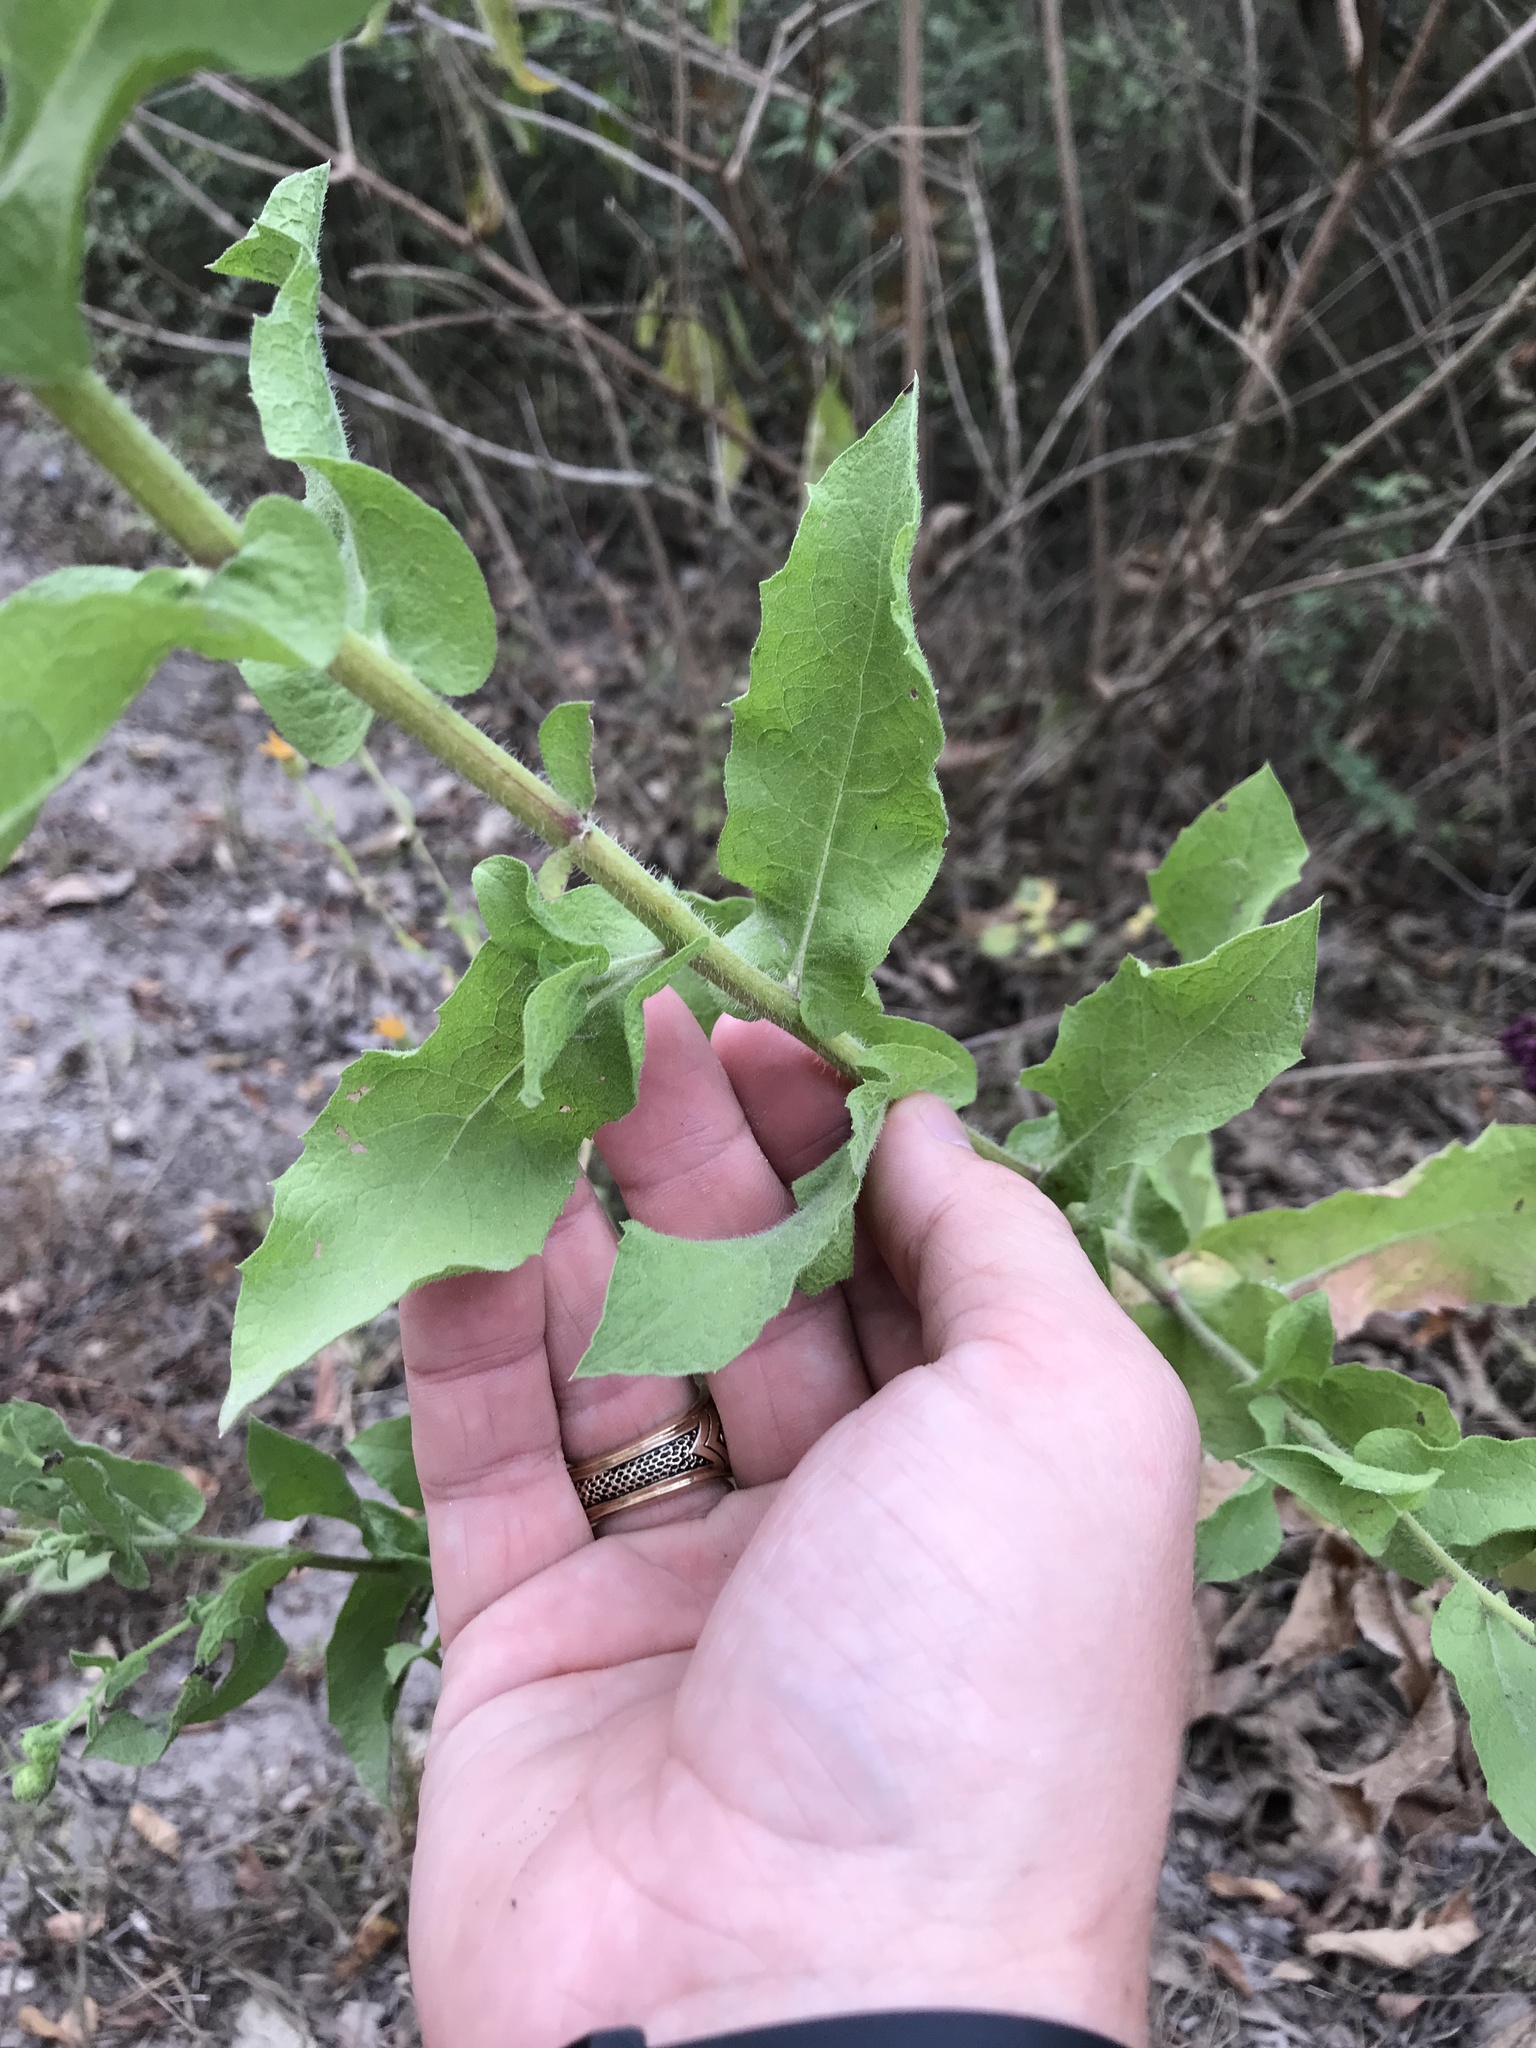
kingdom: Plantae
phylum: Tracheophyta
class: Magnoliopsida
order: Asterales
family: Asteraceae
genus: Heterotheca
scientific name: Heterotheca subaxillaris
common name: Camphorweed
